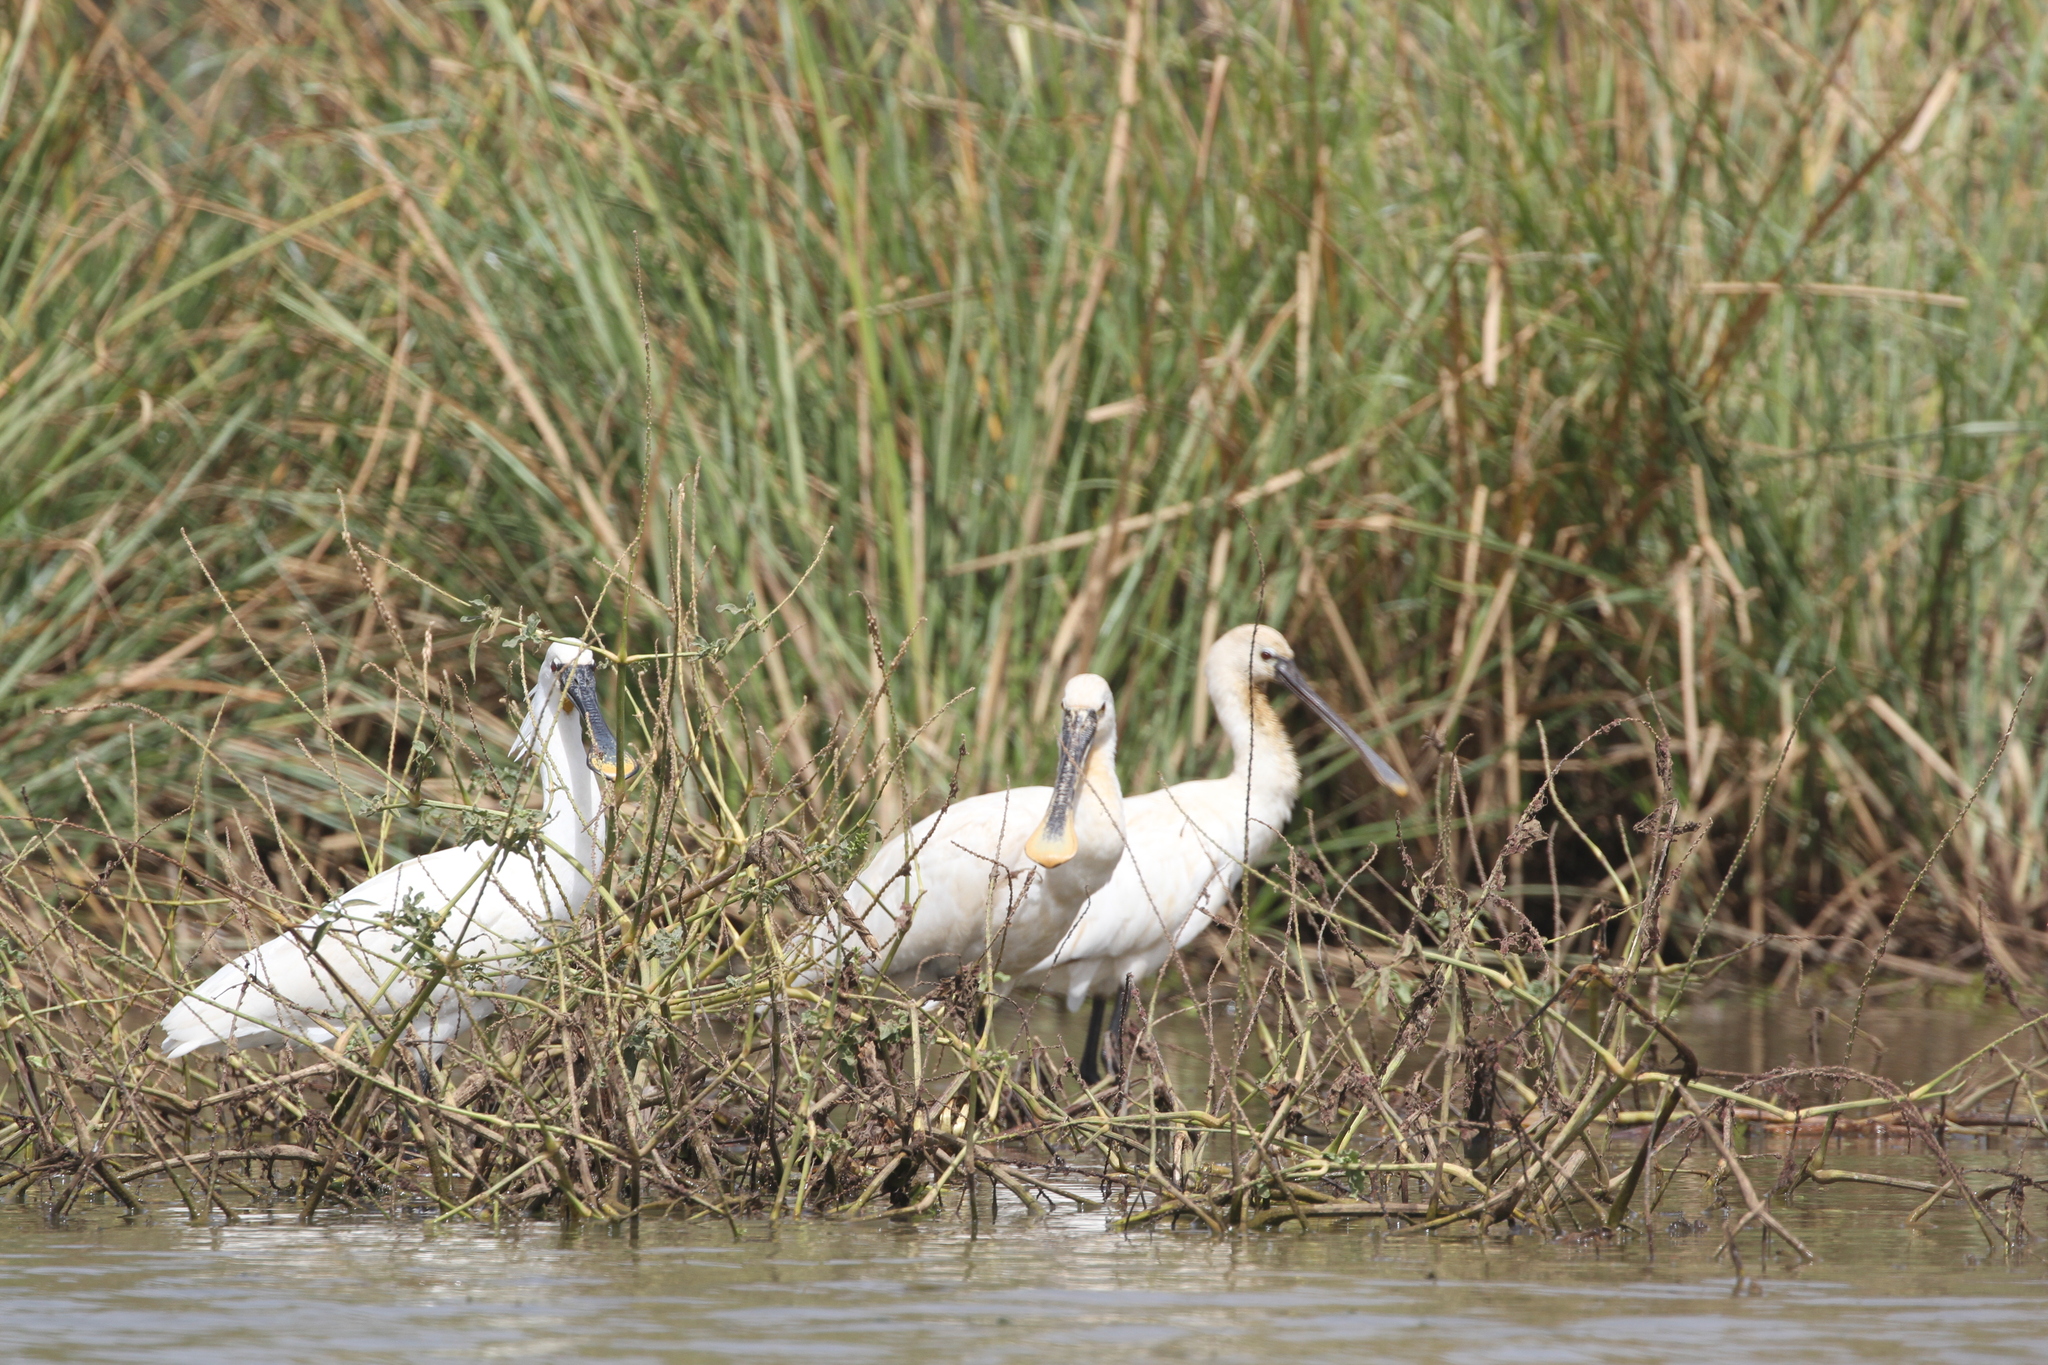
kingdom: Animalia
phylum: Chordata
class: Aves
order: Pelecaniformes
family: Threskiornithidae
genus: Platalea
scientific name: Platalea leucorodia
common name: Eurasian spoonbill
